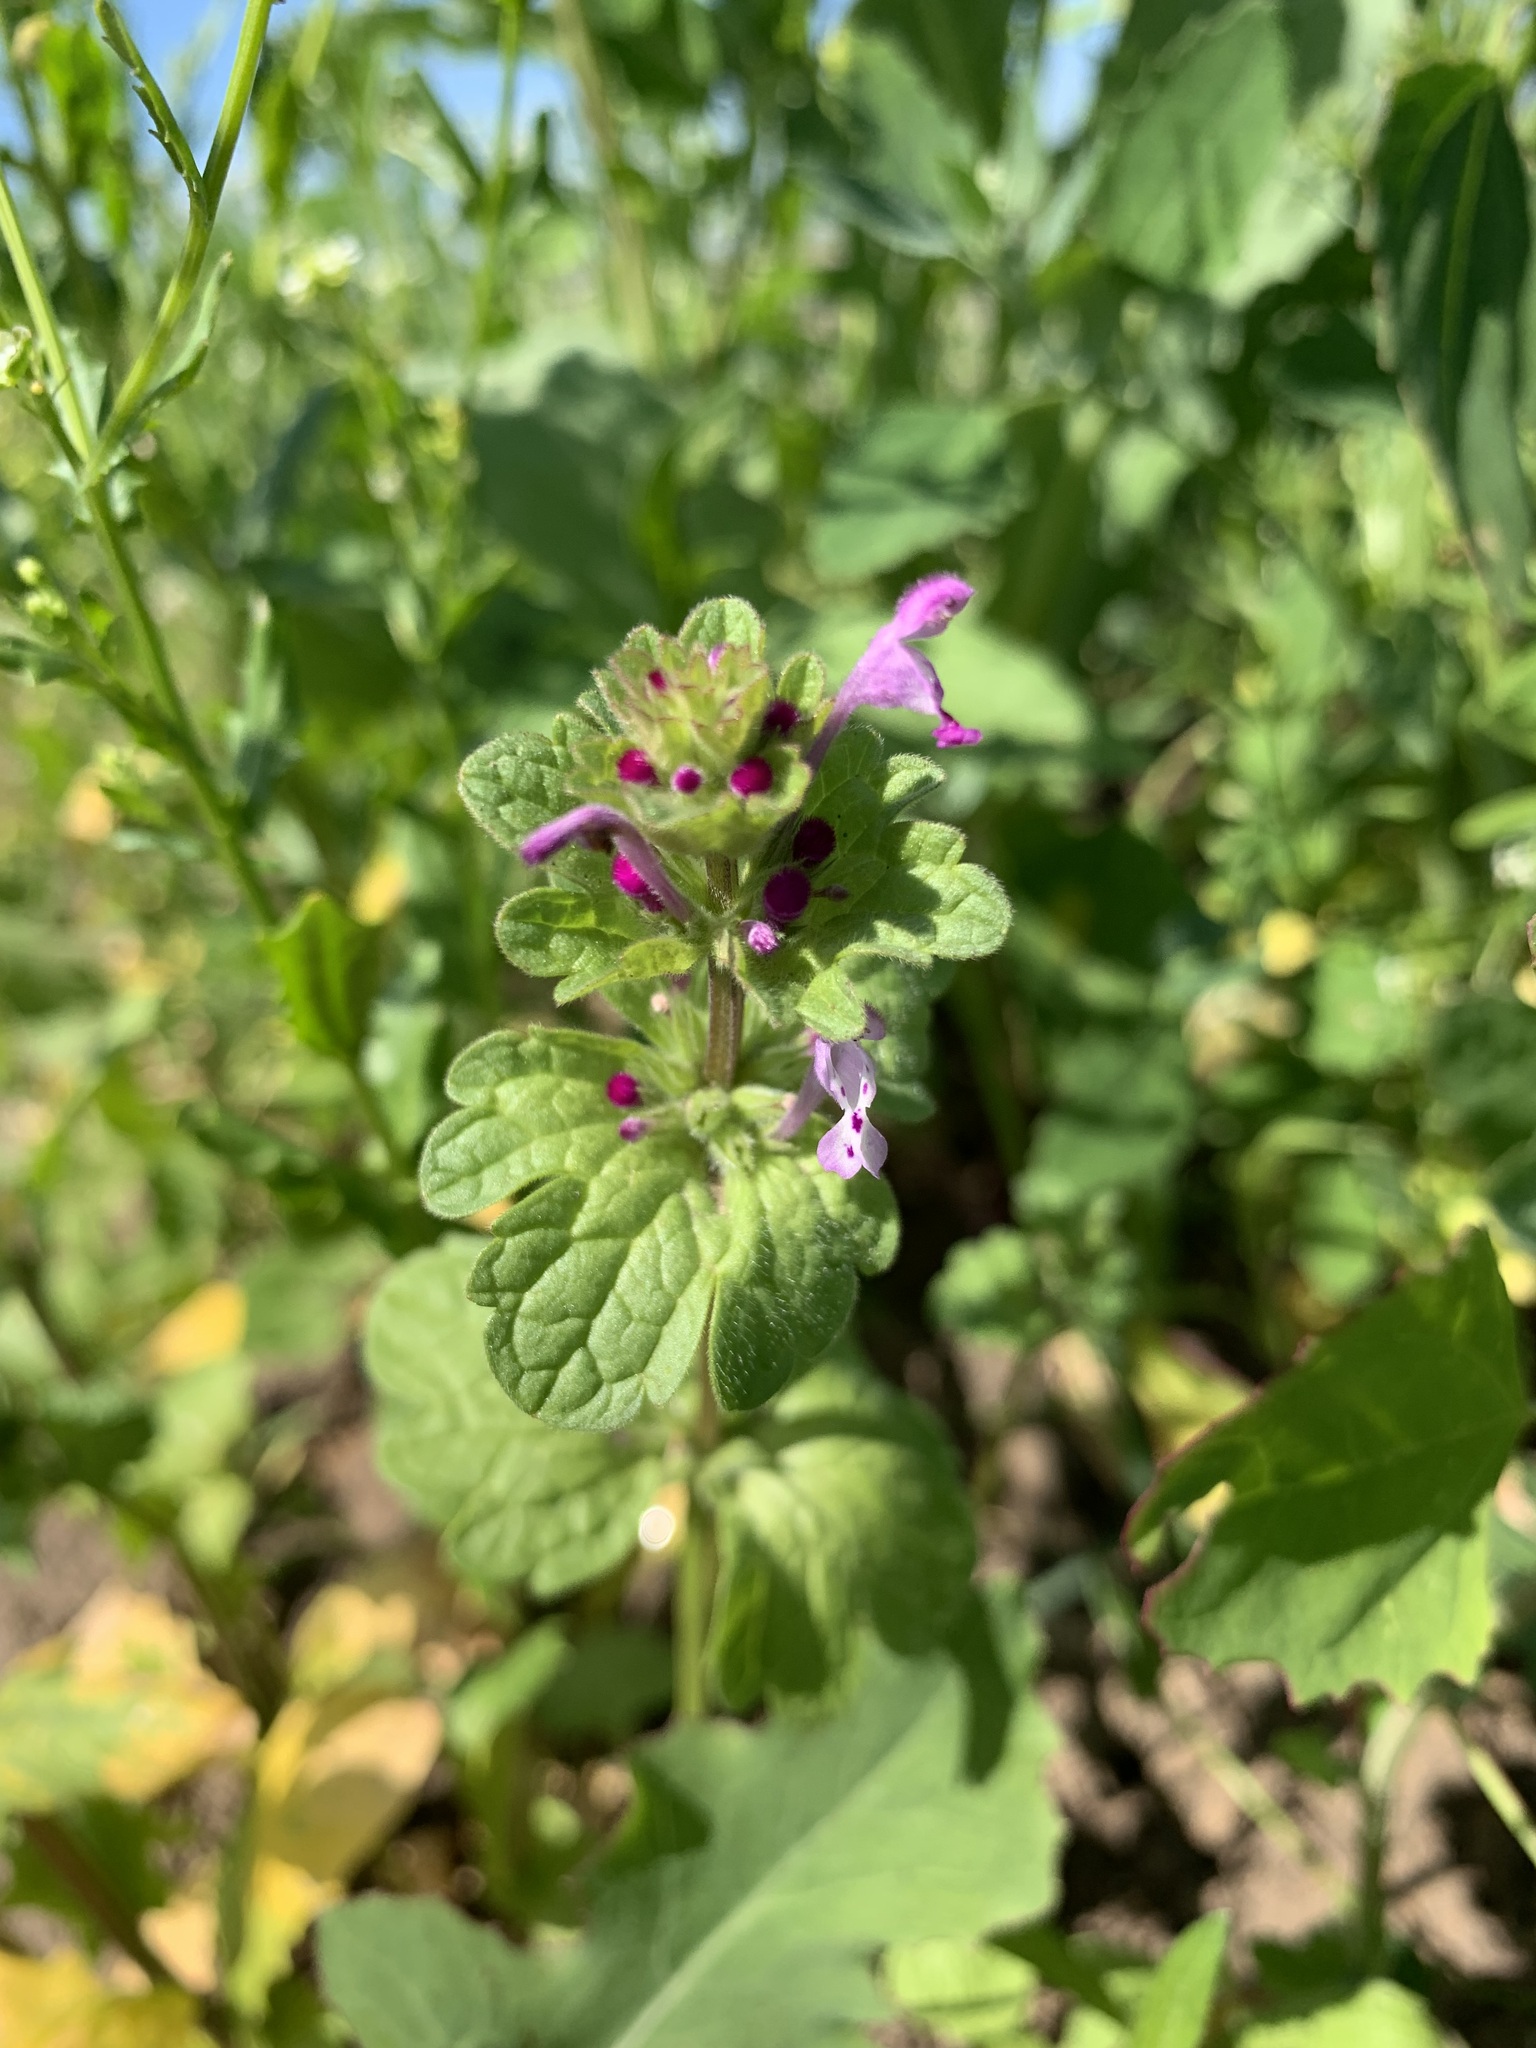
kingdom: Plantae
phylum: Tracheophyta
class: Magnoliopsida
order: Lamiales
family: Lamiaceae
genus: Lamium
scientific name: Lamium amplexicaule
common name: Henbit dead-nettle
